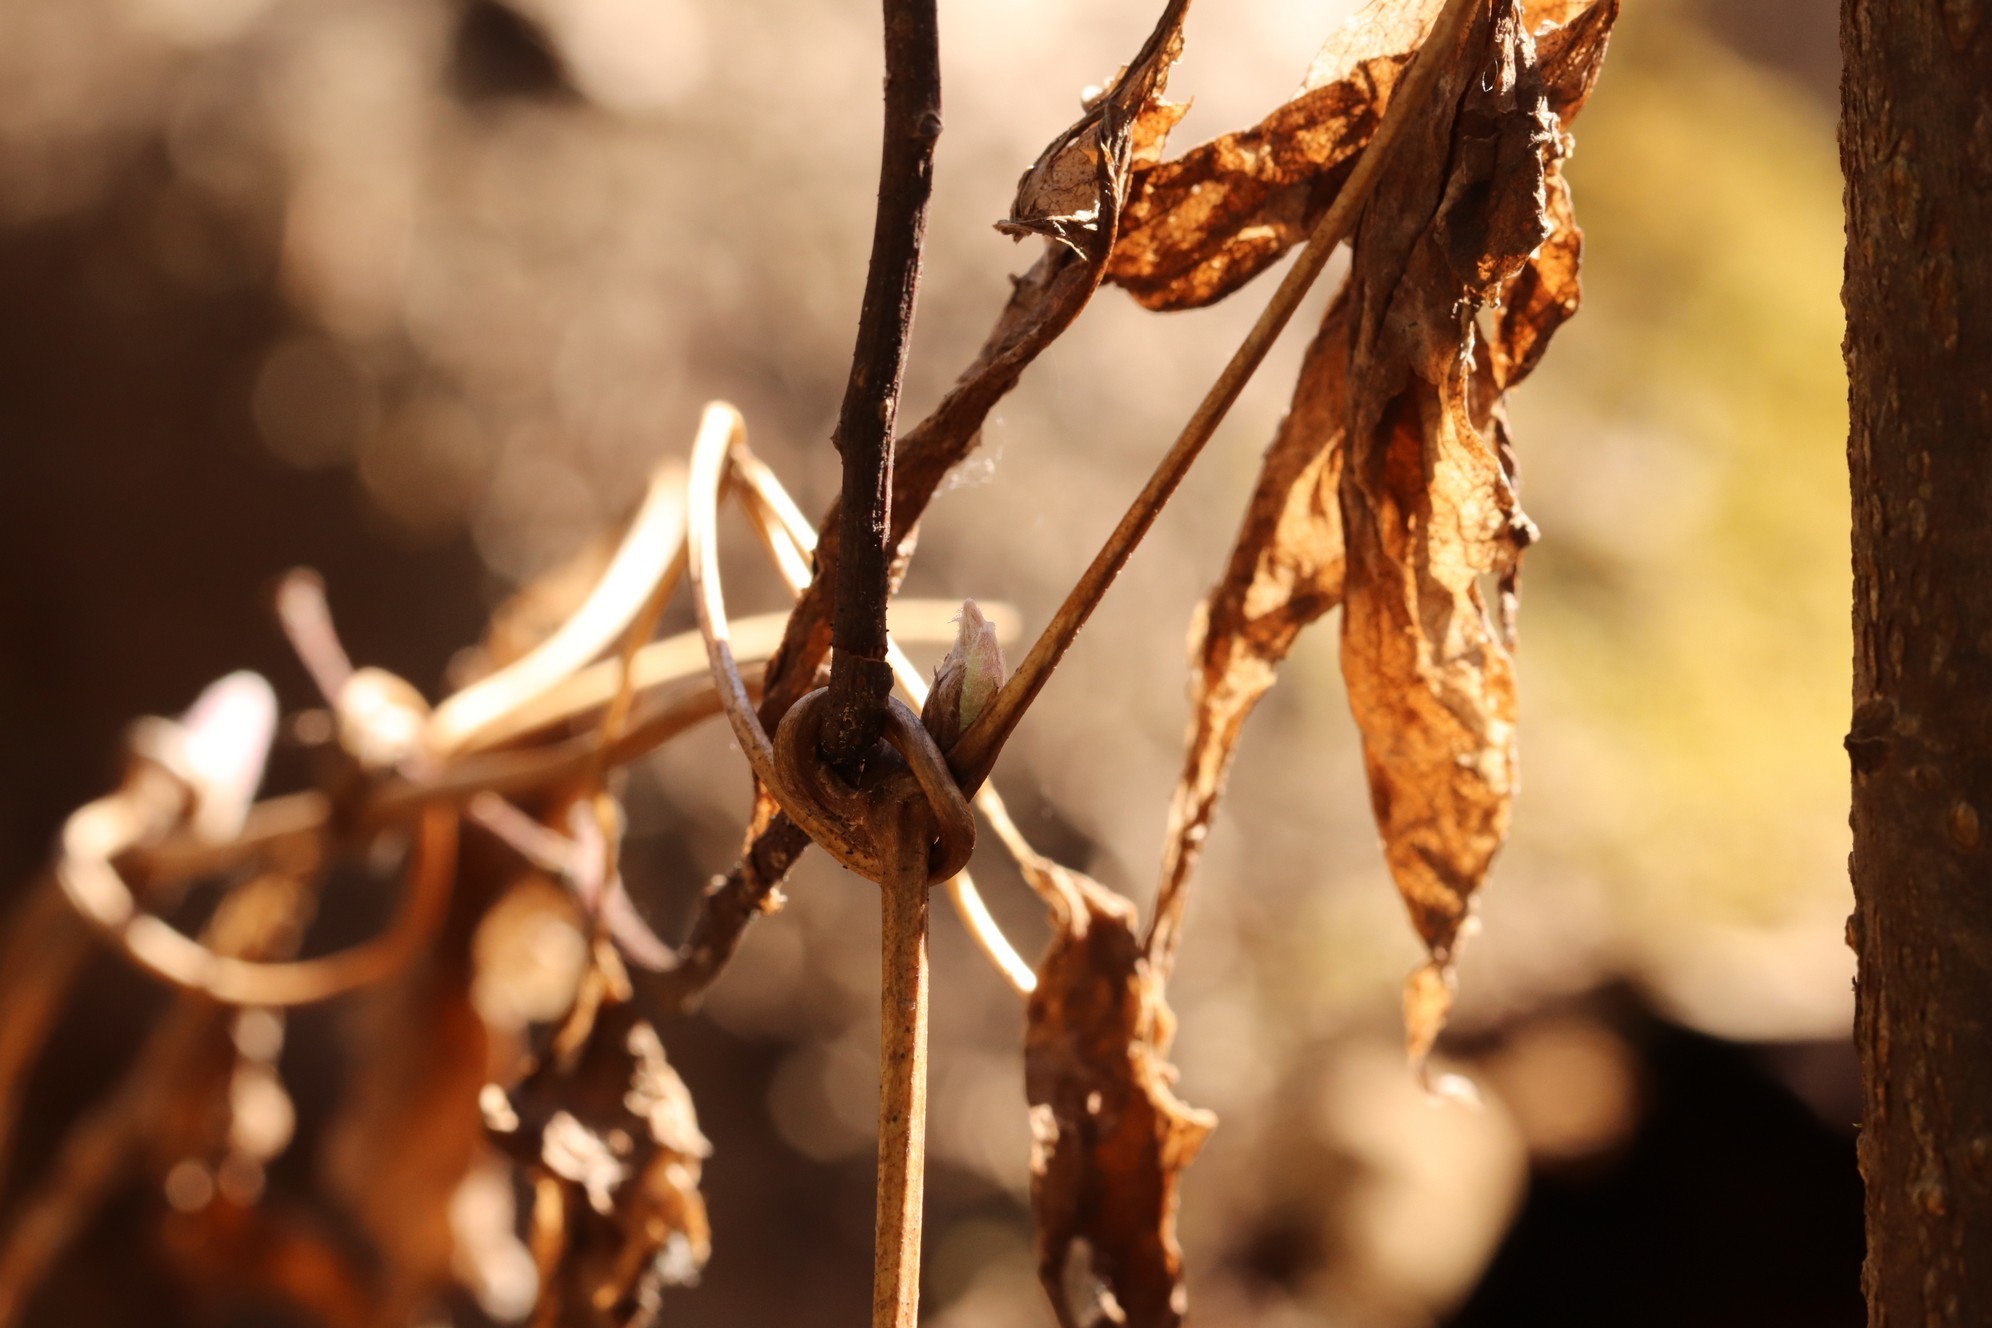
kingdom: Plantae
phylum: Tracheophyta
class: Magnoliopsida
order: Ranunculales
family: Ranunculaceae
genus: Clematis
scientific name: Clematis sibirica
